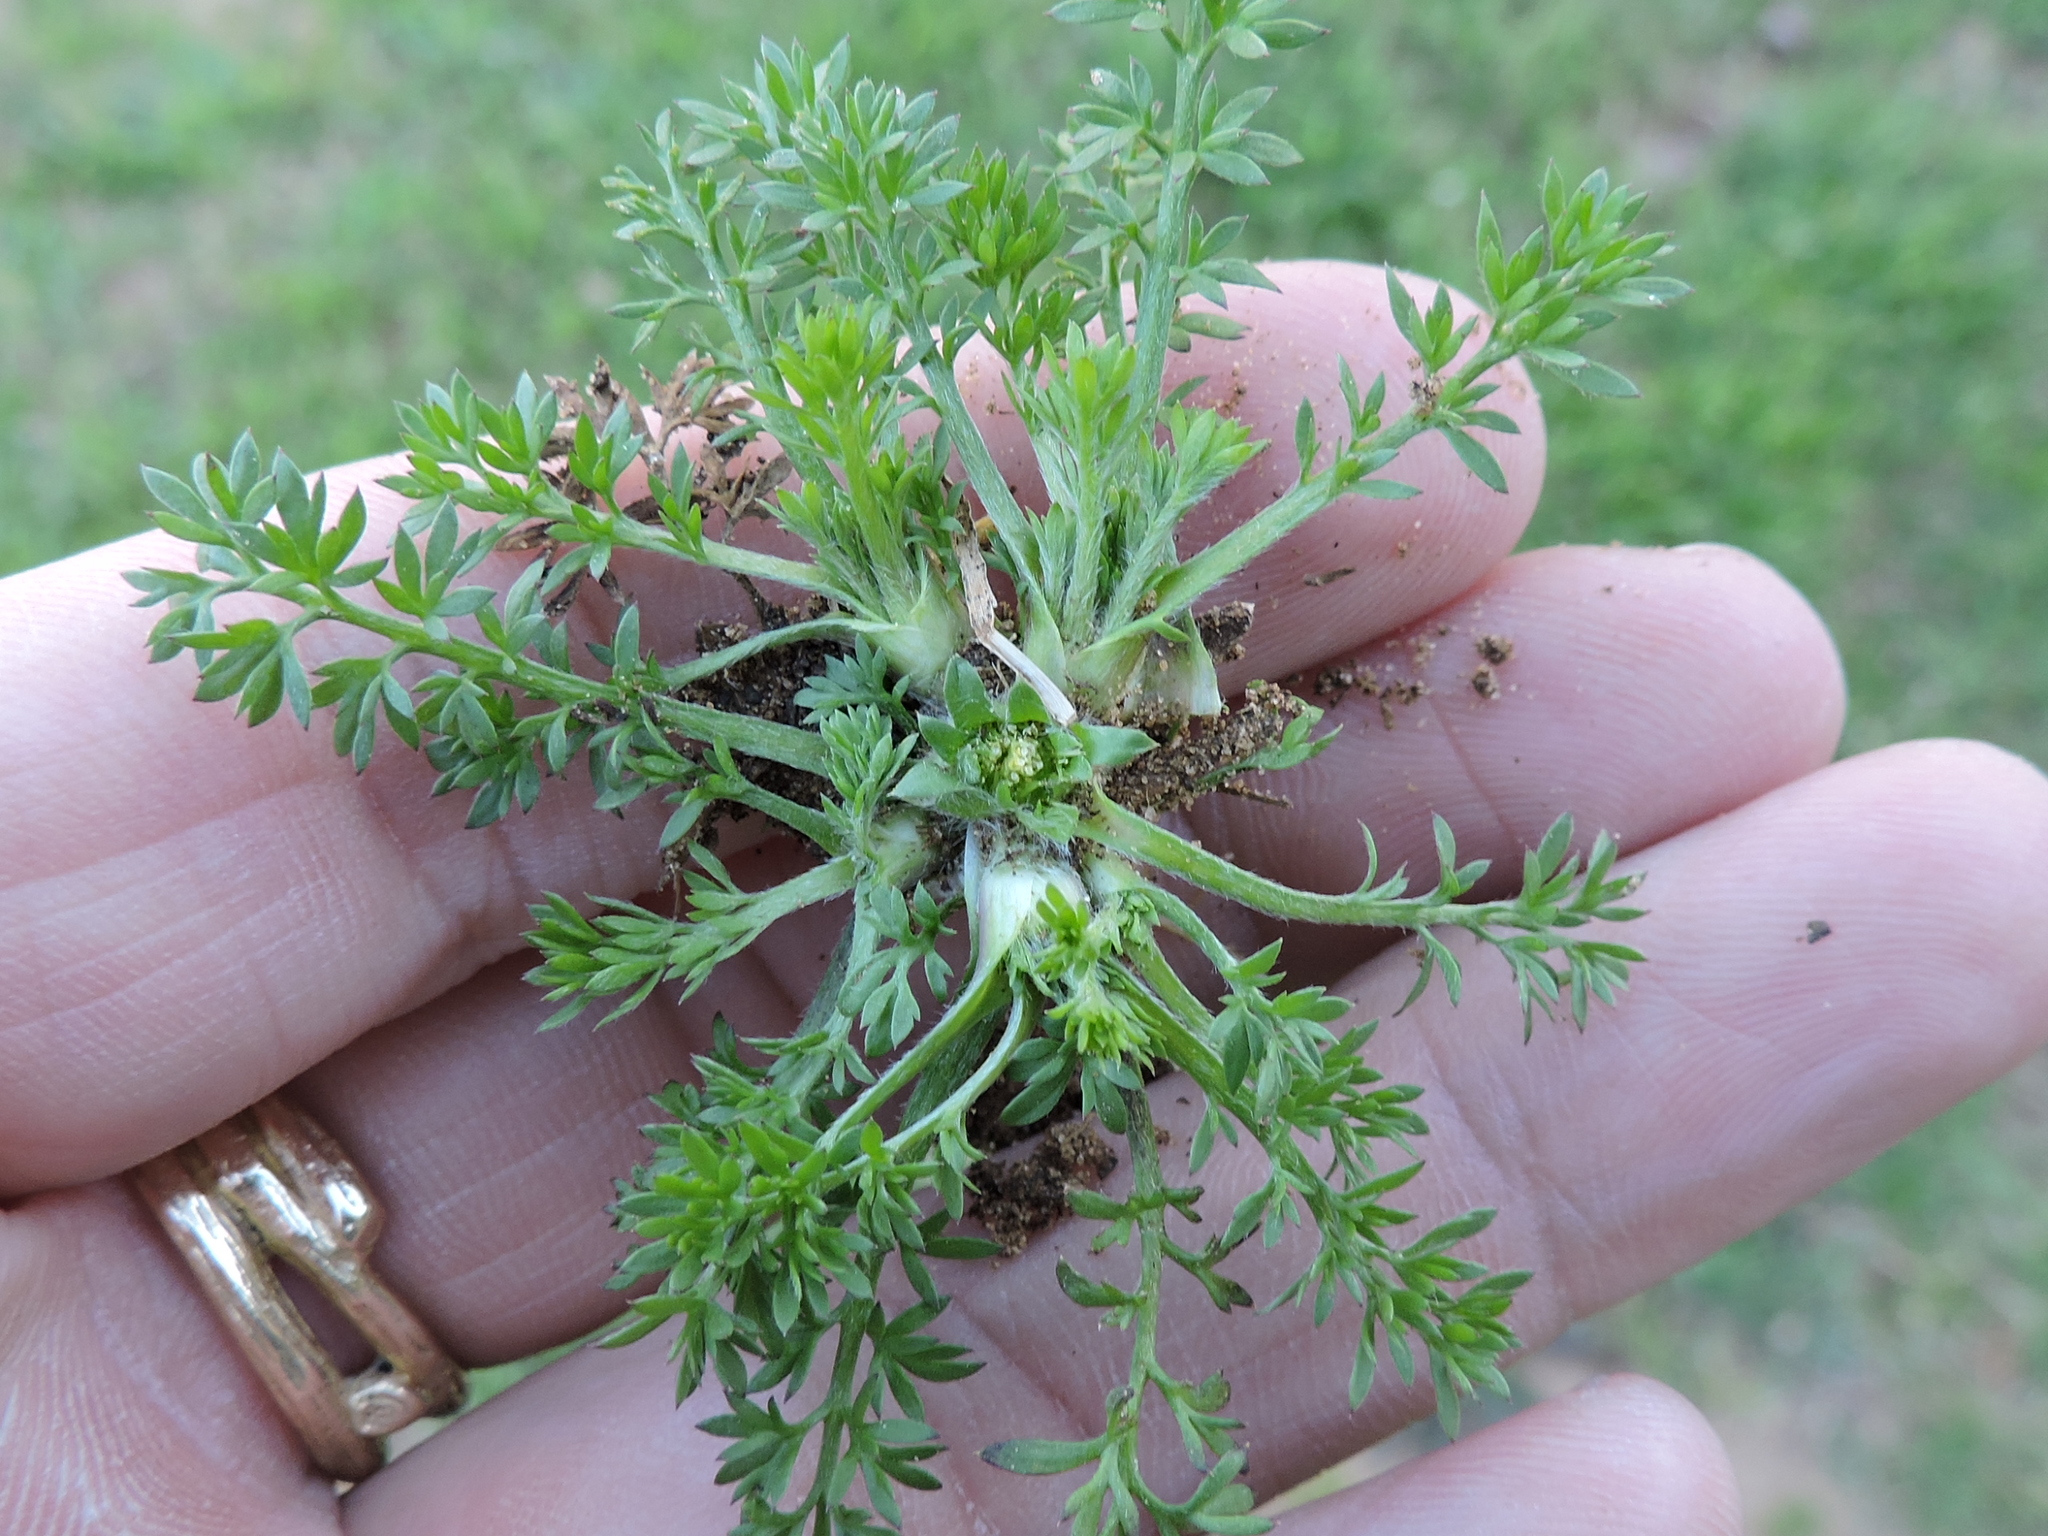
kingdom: Plantae
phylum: Tracheophyta
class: Magnoliopsida
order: Asterales
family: Asteraceae
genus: Soliva
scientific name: Soliva sessilis
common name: Field burrweed
